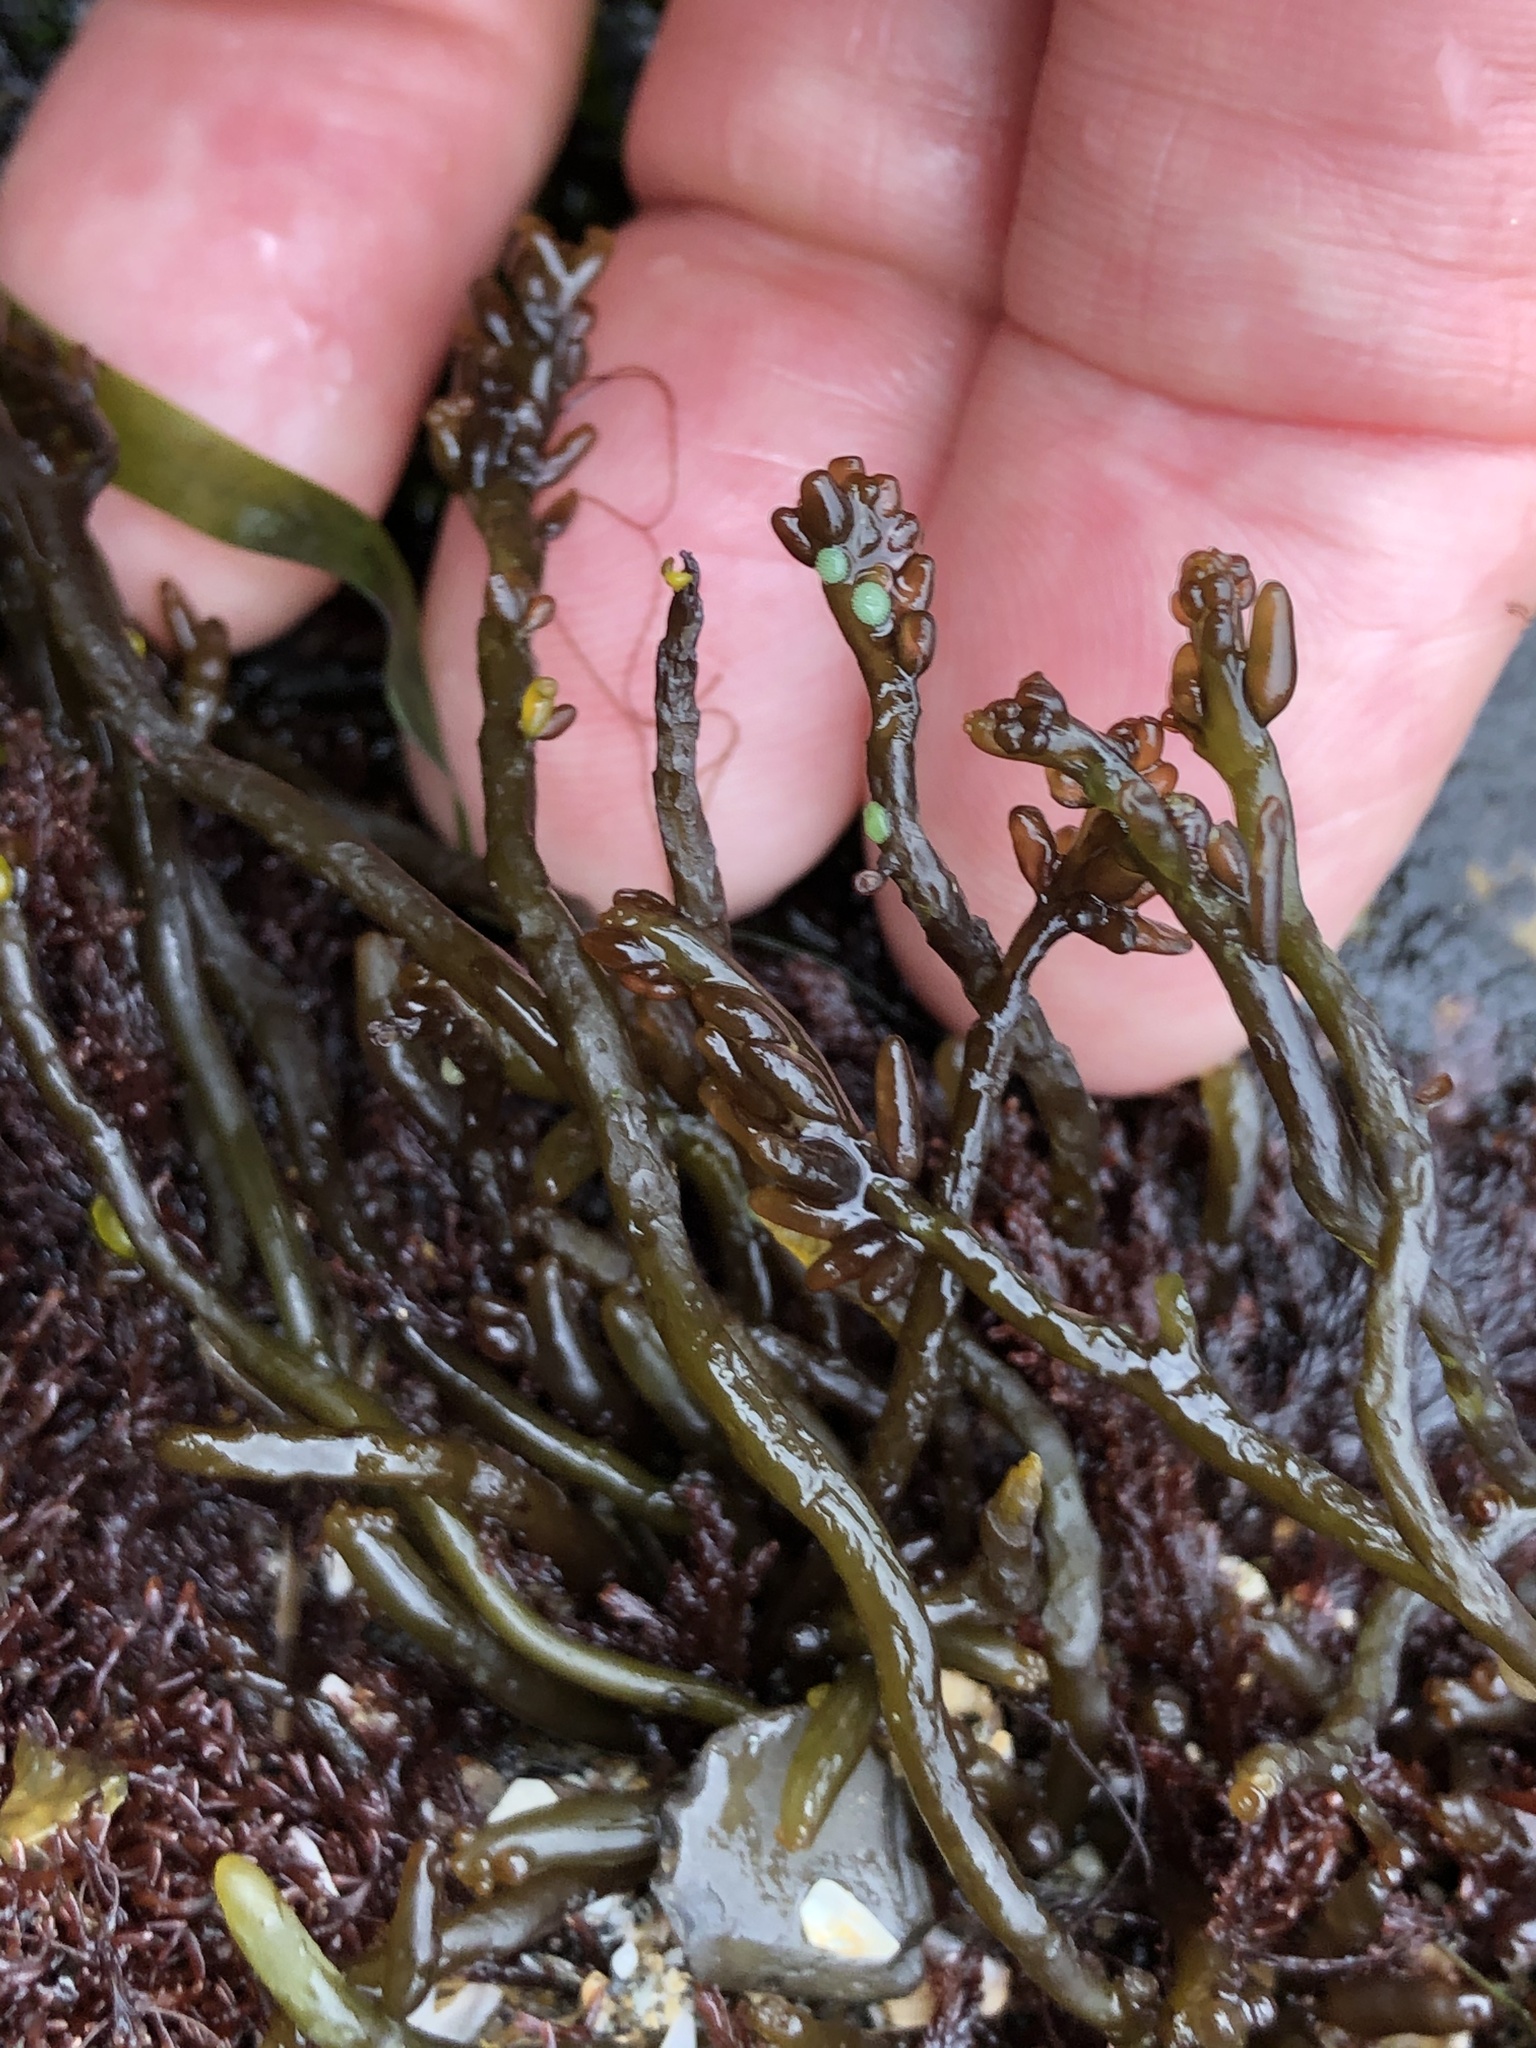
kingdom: Plantae
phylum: Rhodophyta
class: Florideophyceae
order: Rhodymeniales
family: Champiaceae
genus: Neogastroclonium
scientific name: Neogastroclonium subarticulatum
